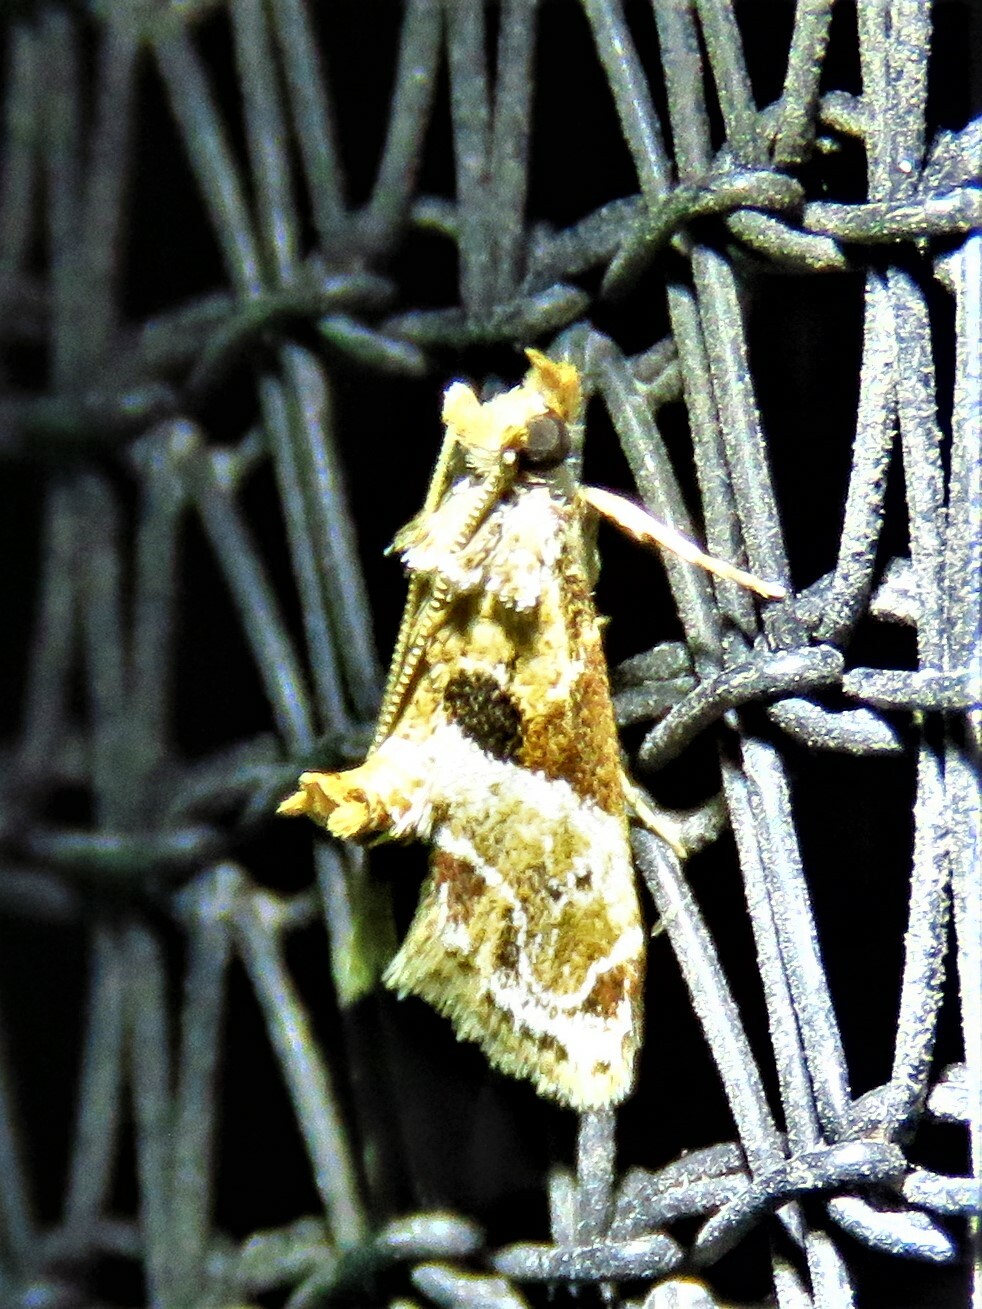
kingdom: Animalia
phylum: Arthropoda
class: Insecta
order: Lepidoptera
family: Pyralidae
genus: Neodavisia
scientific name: Neodavisia melusina
